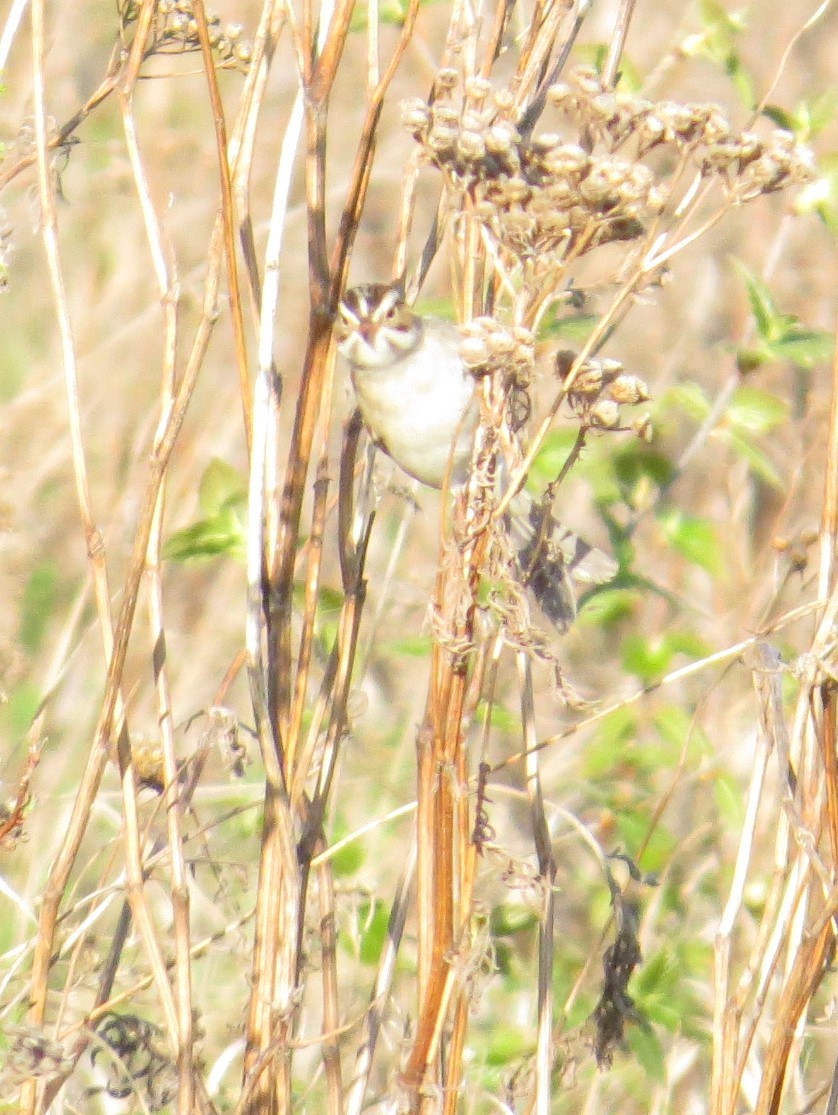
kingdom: Animalia
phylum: Chordata
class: Aves
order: Passeriformes
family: Passerellidae
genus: Spizella
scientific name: Spizella pallida
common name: Clay-colored sparrow
